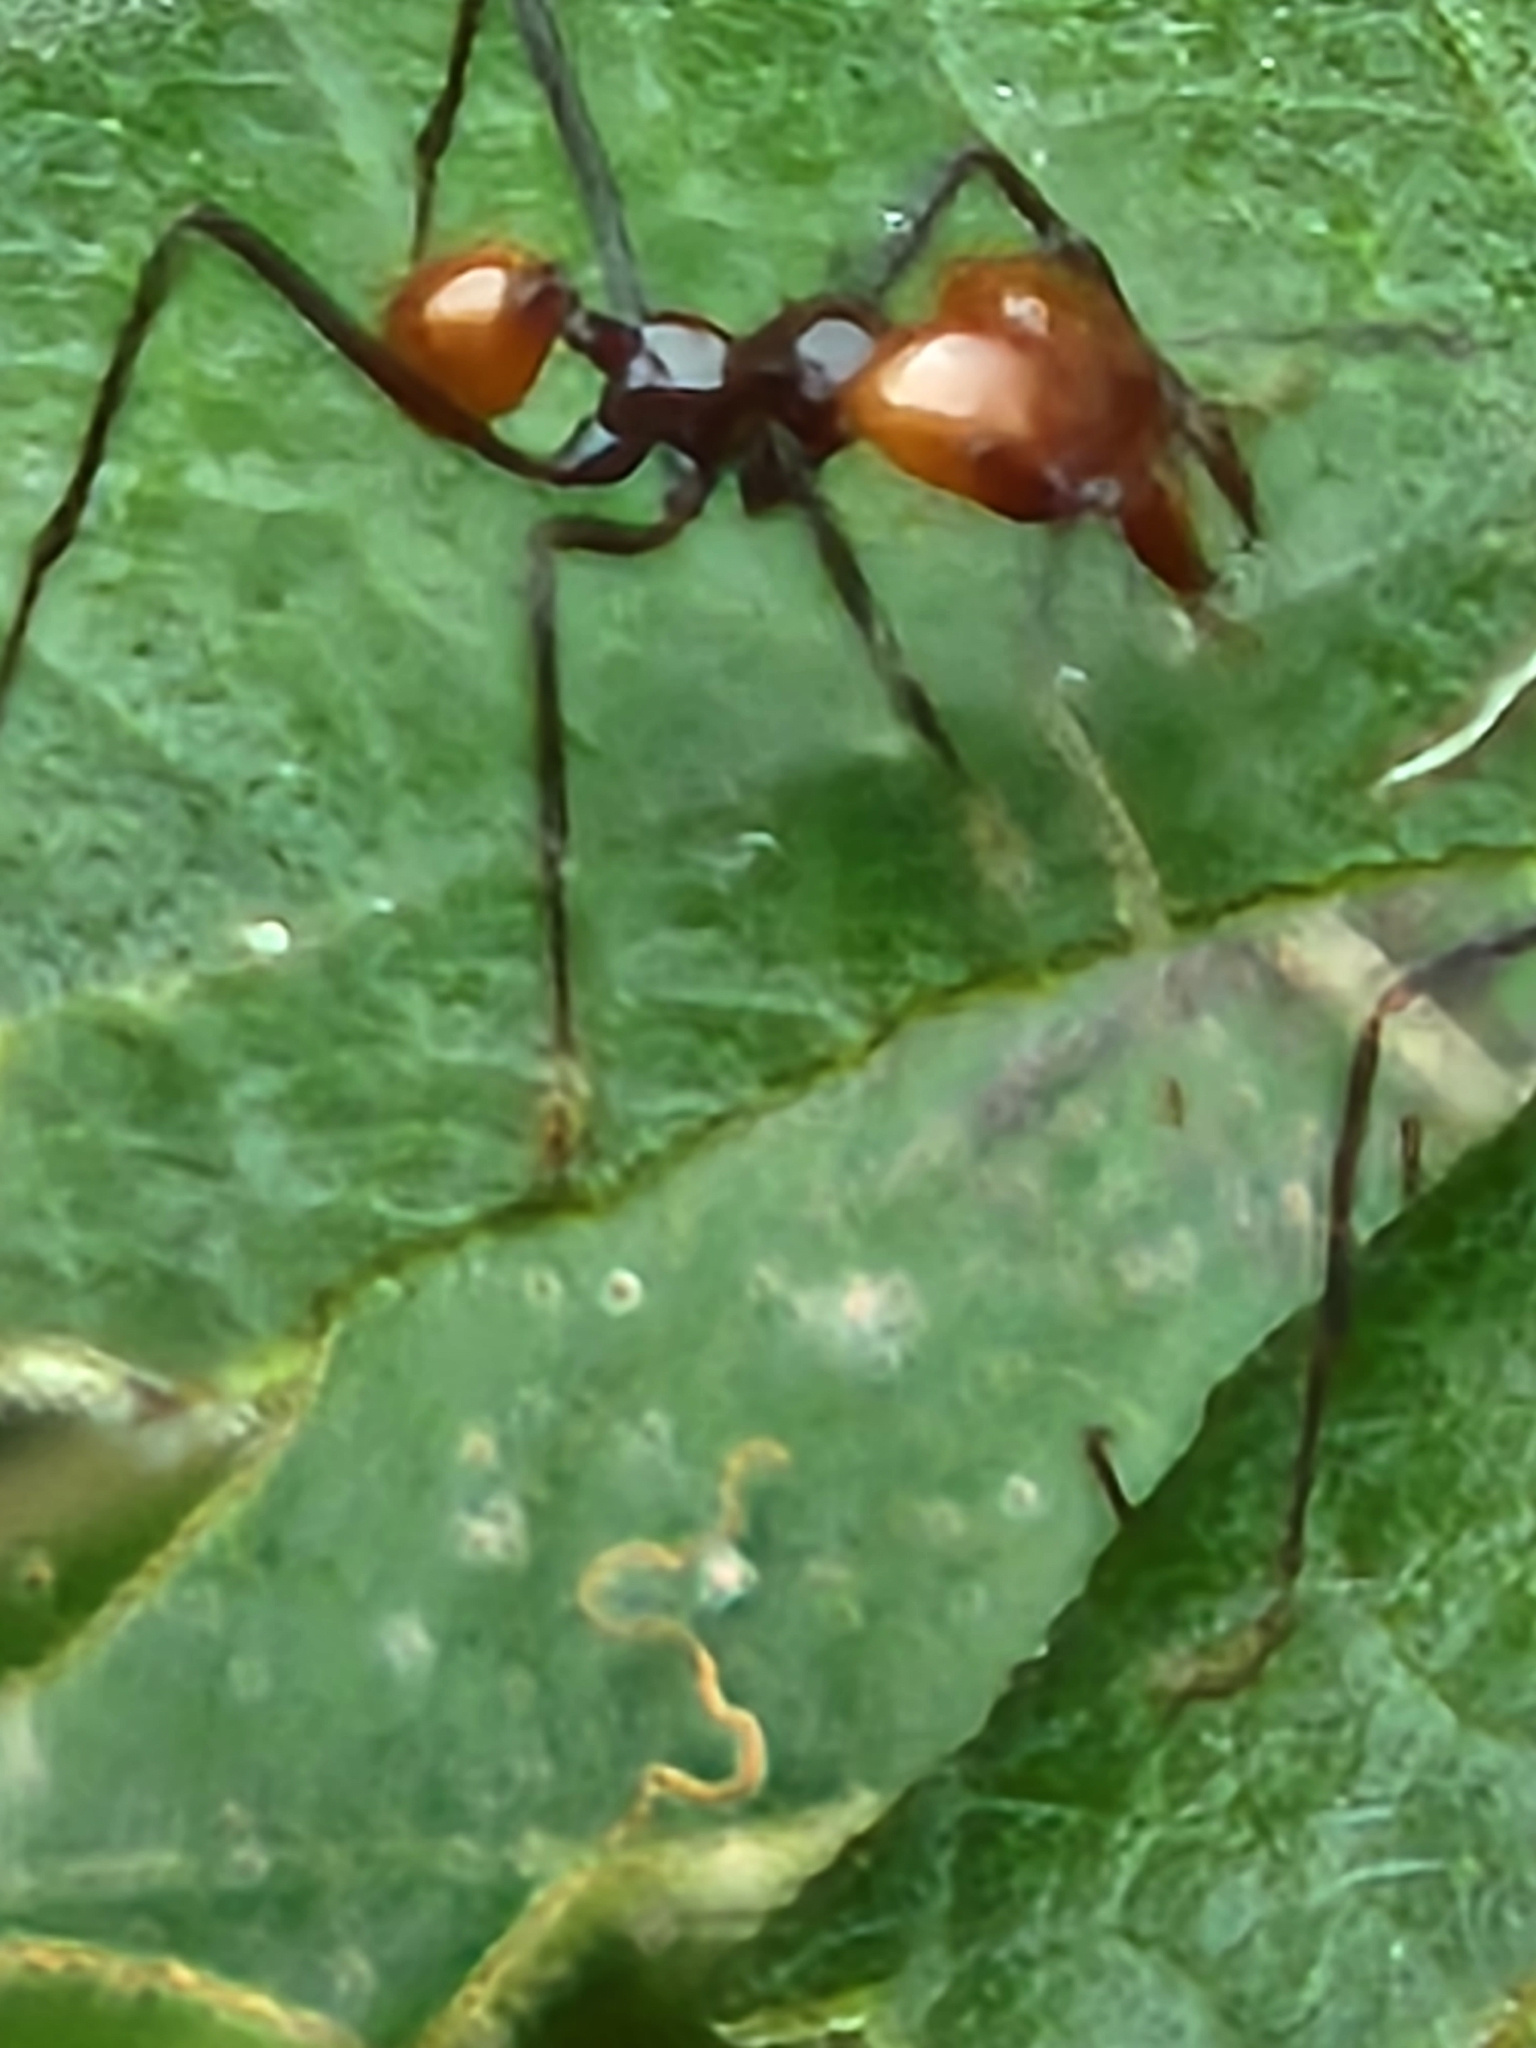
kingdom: Animalia
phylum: Arthropoda
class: Insecta
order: Hymenoptera
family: Formicidae
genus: Atta
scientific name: Atta cephalotes
